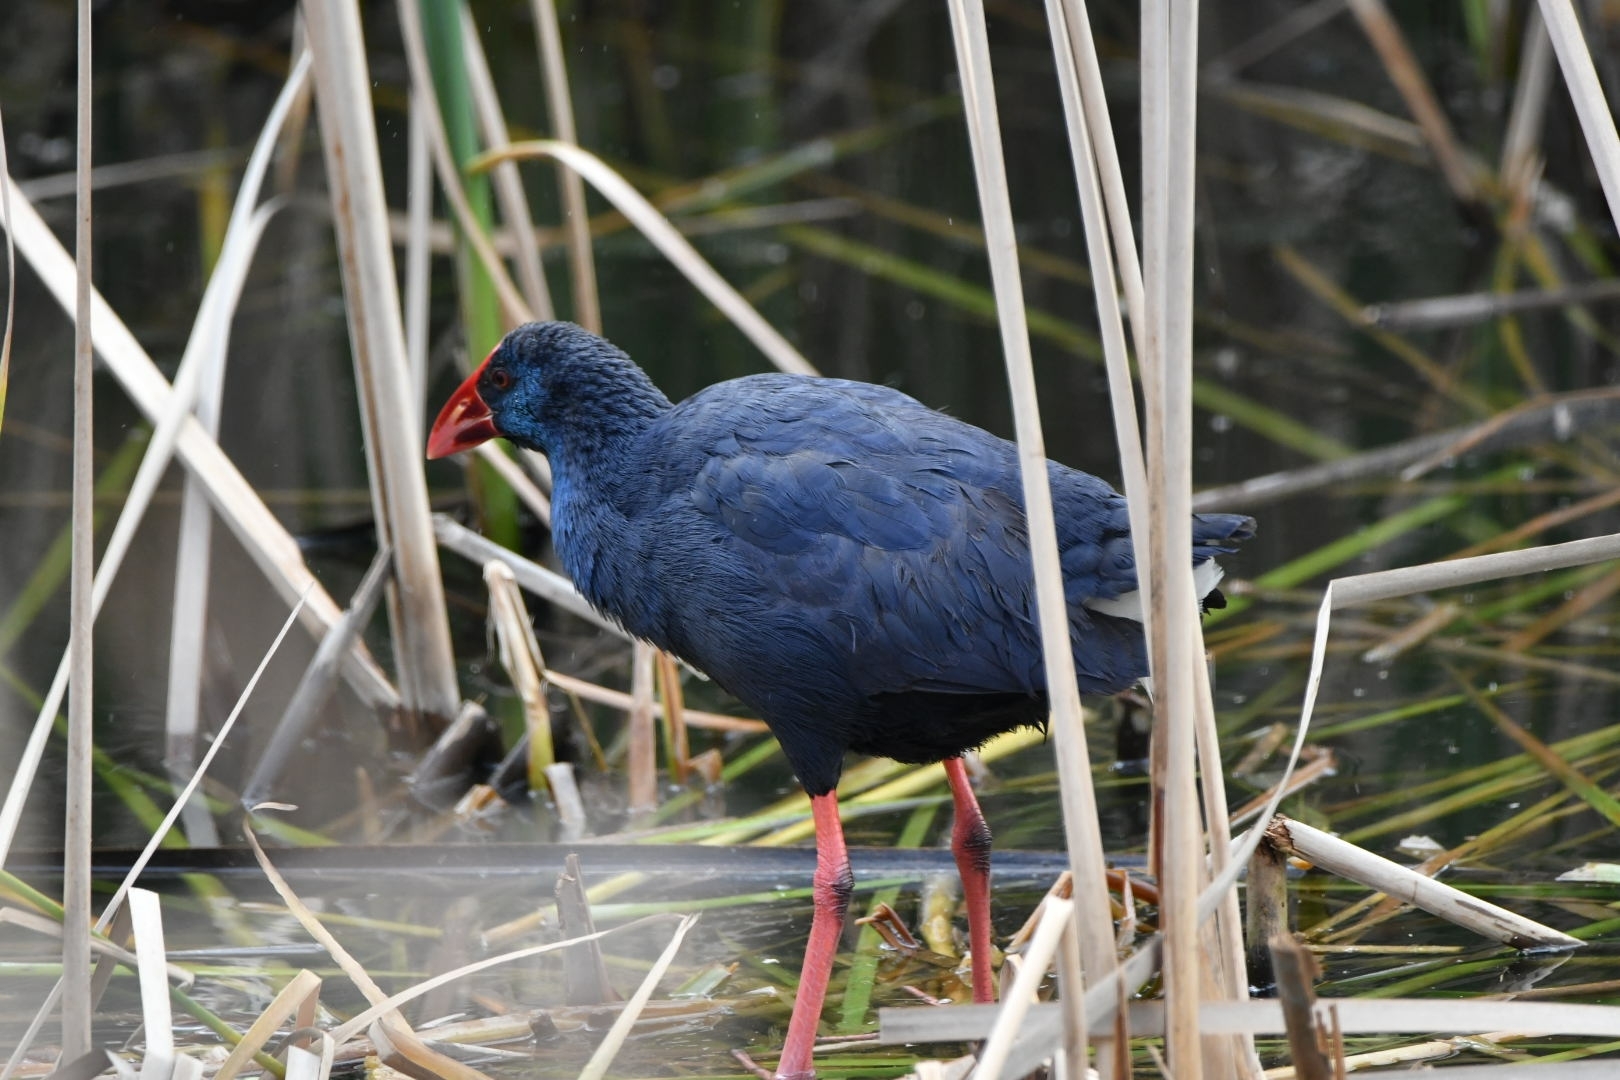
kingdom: Animalia
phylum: Chordata
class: Aves
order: Gruiformes
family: Rallidae
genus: Porphyrio
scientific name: Porphyrio porphyrio
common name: Purple swamphen
